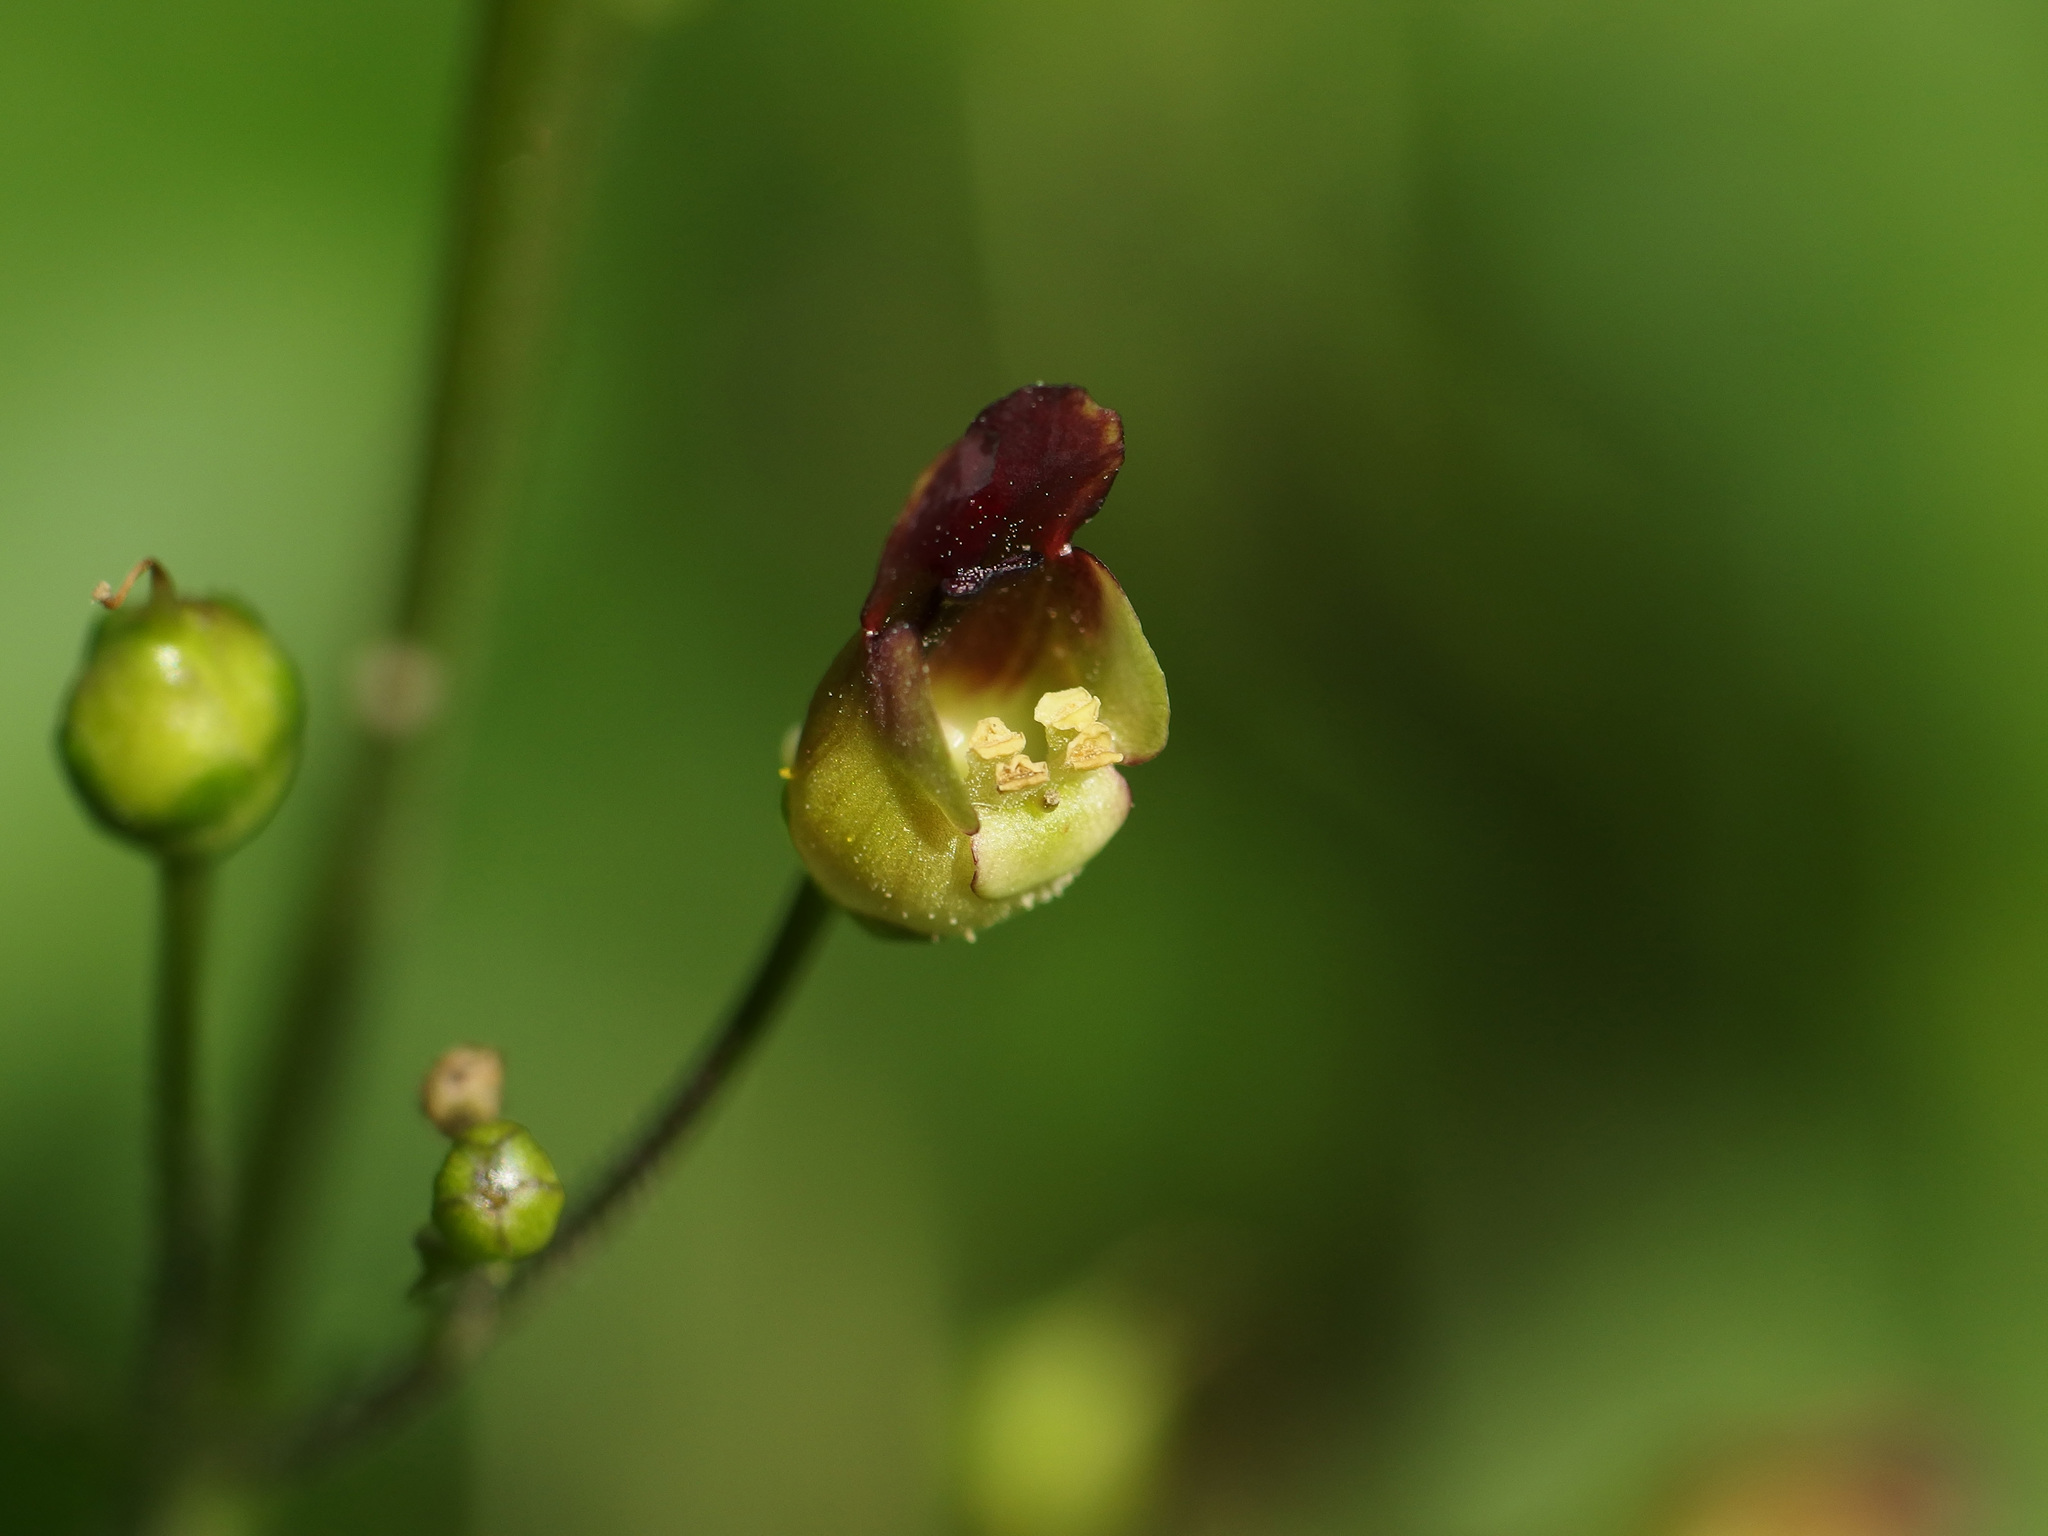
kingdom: Plantae
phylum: Tracheophyta
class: Magnoliopsida
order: Lamiales
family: Scrophulariaceae
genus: Scrophularia
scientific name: Scrophularia nodosa
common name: Common figwort
